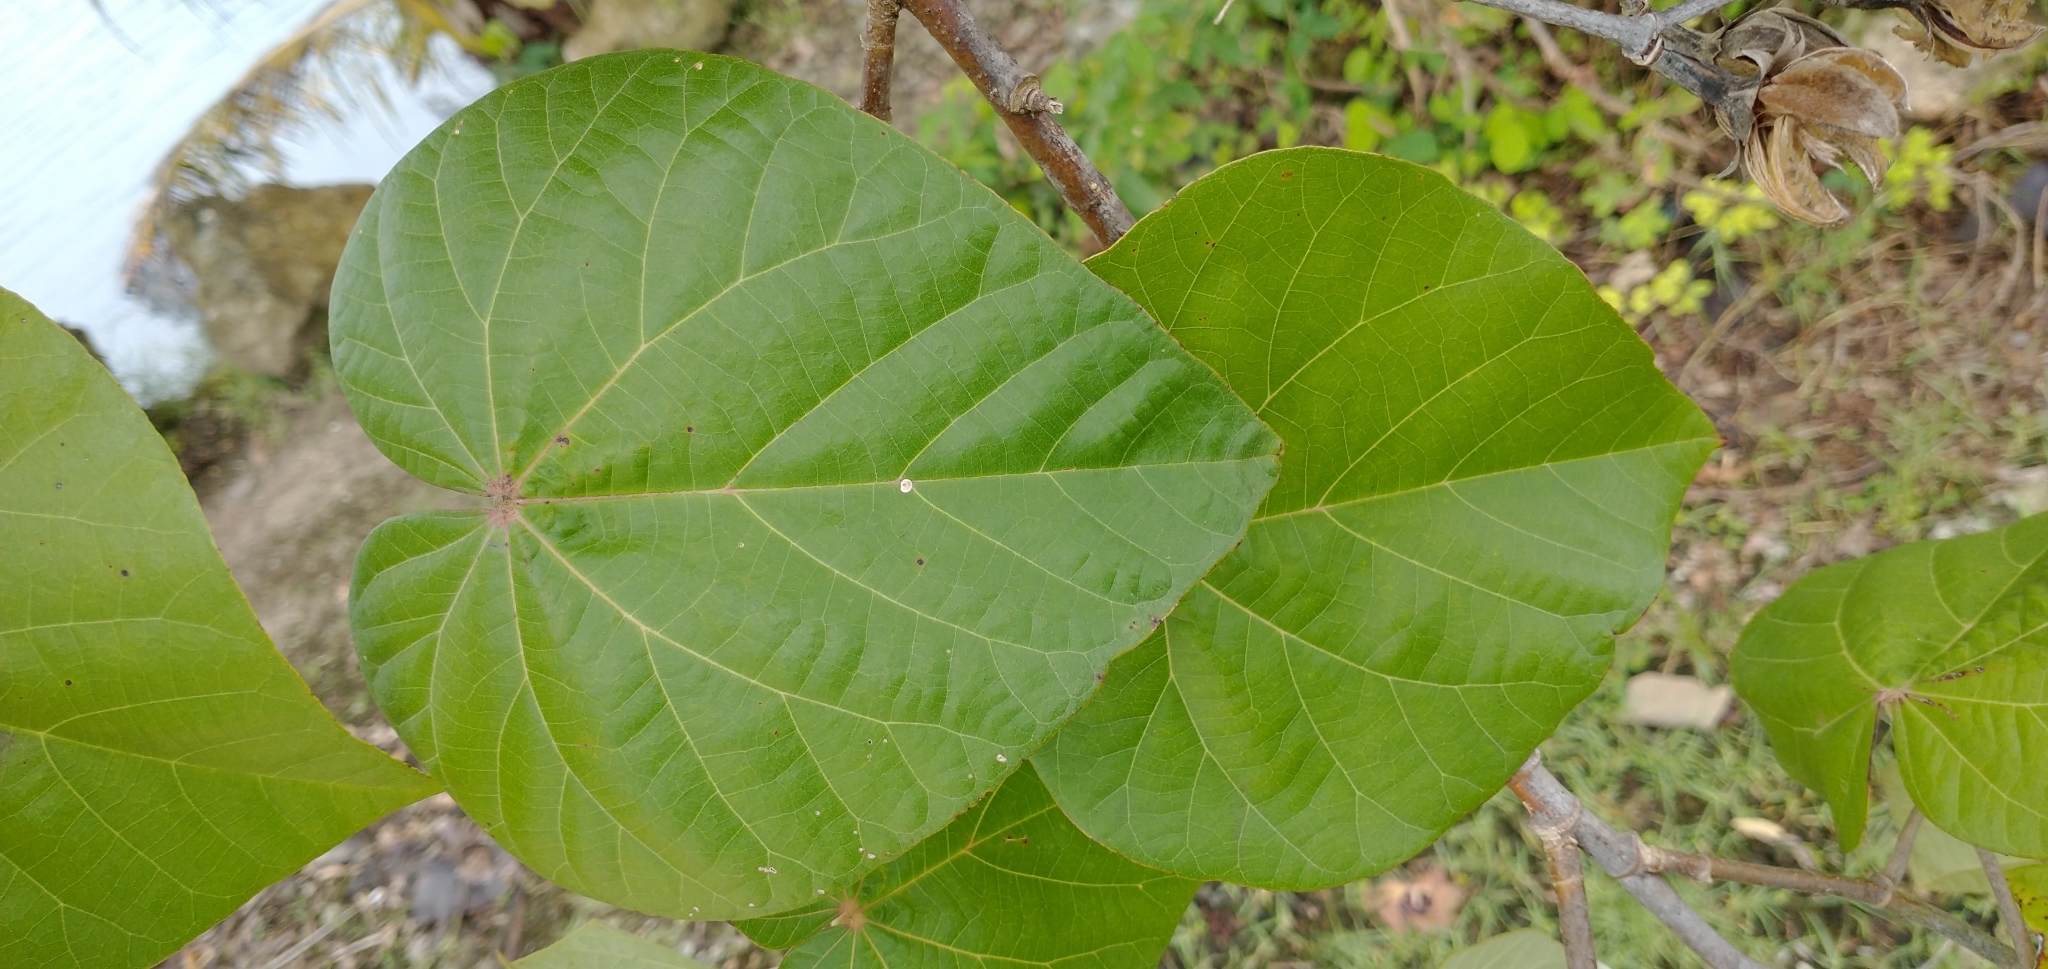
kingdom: Plantae
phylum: Tracheophyta
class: Magnoliopsida
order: Malvales
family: Malvaceae
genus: Talipariti
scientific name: Talipariti tiliaceum
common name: Sea hibiscus
